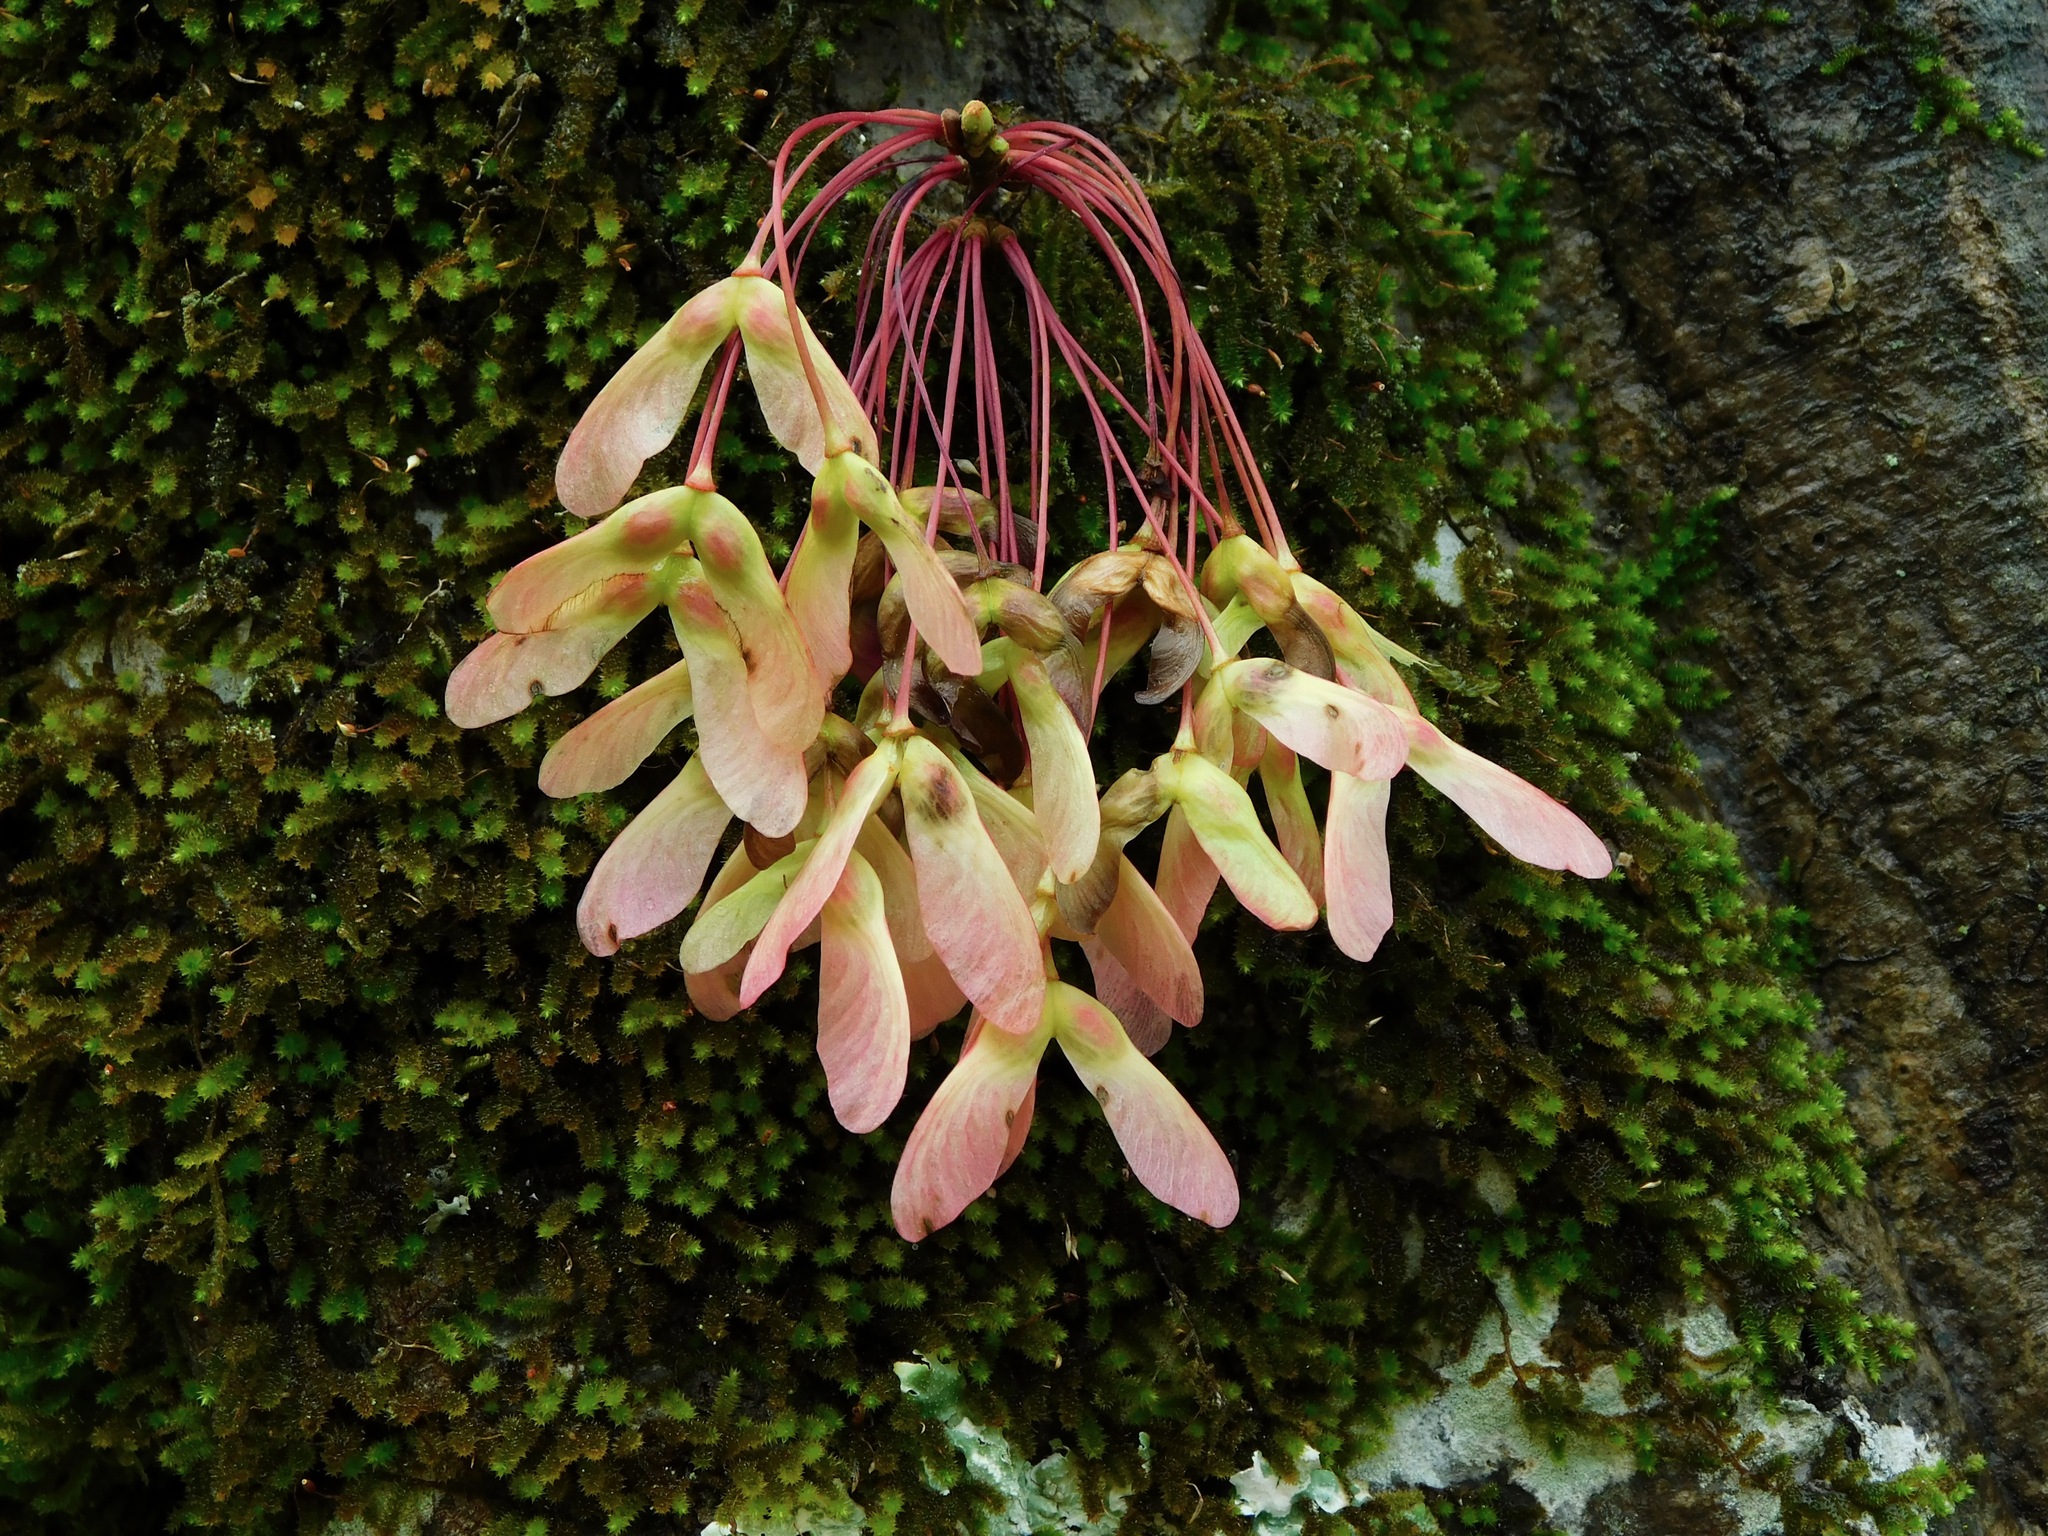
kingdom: Plantae
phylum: Tracheophyta
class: Magnoliopsida
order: Sapindales
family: Sapindaceae
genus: Acer
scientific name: Acer rubrum
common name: Red maple
